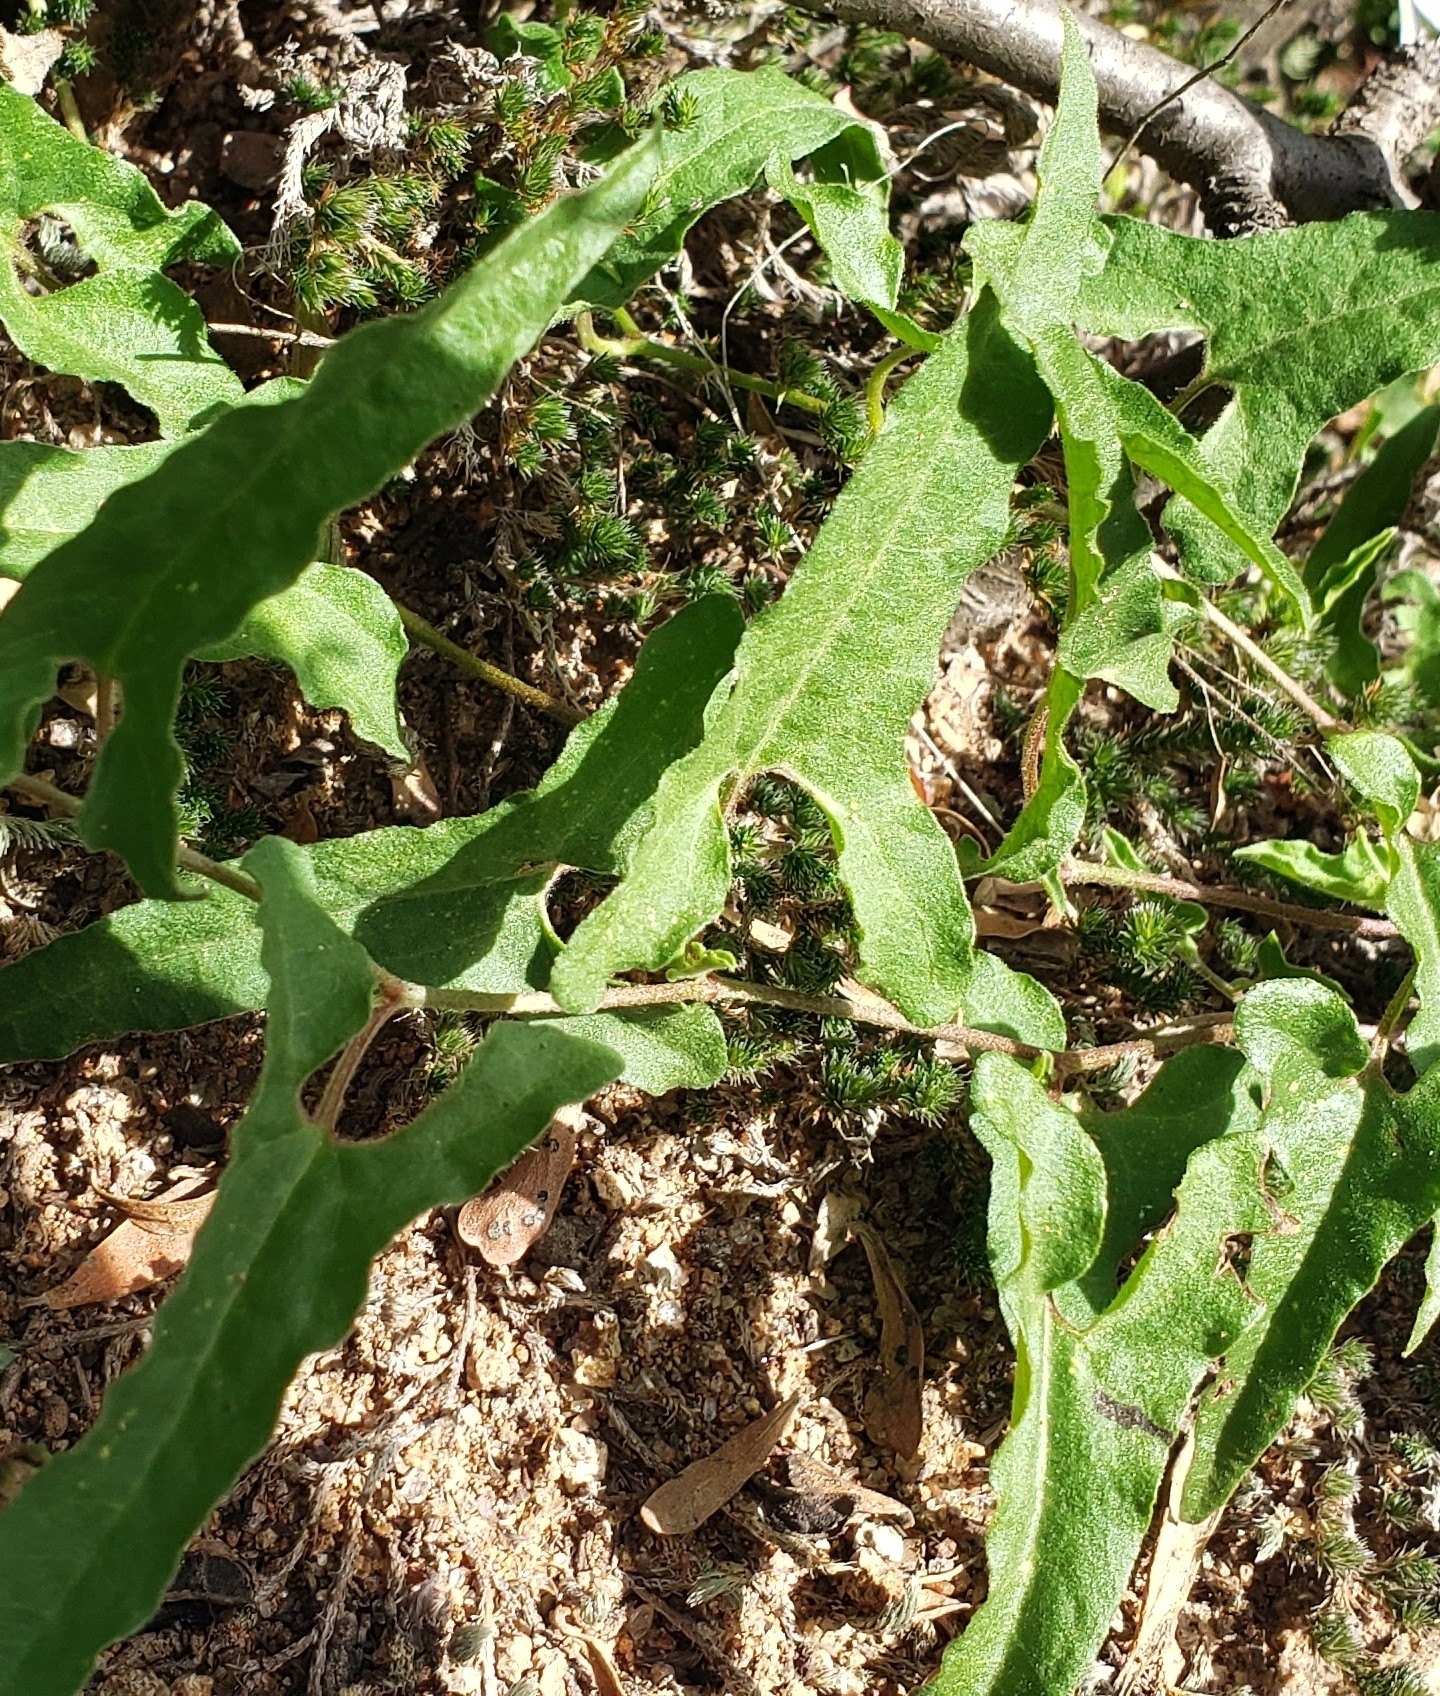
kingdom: Plantae
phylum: Tracheophyta
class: Magnoliopsida
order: Piperales
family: Aristolochiaceae
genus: Aristolochia
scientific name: Aristolochia watsonii
